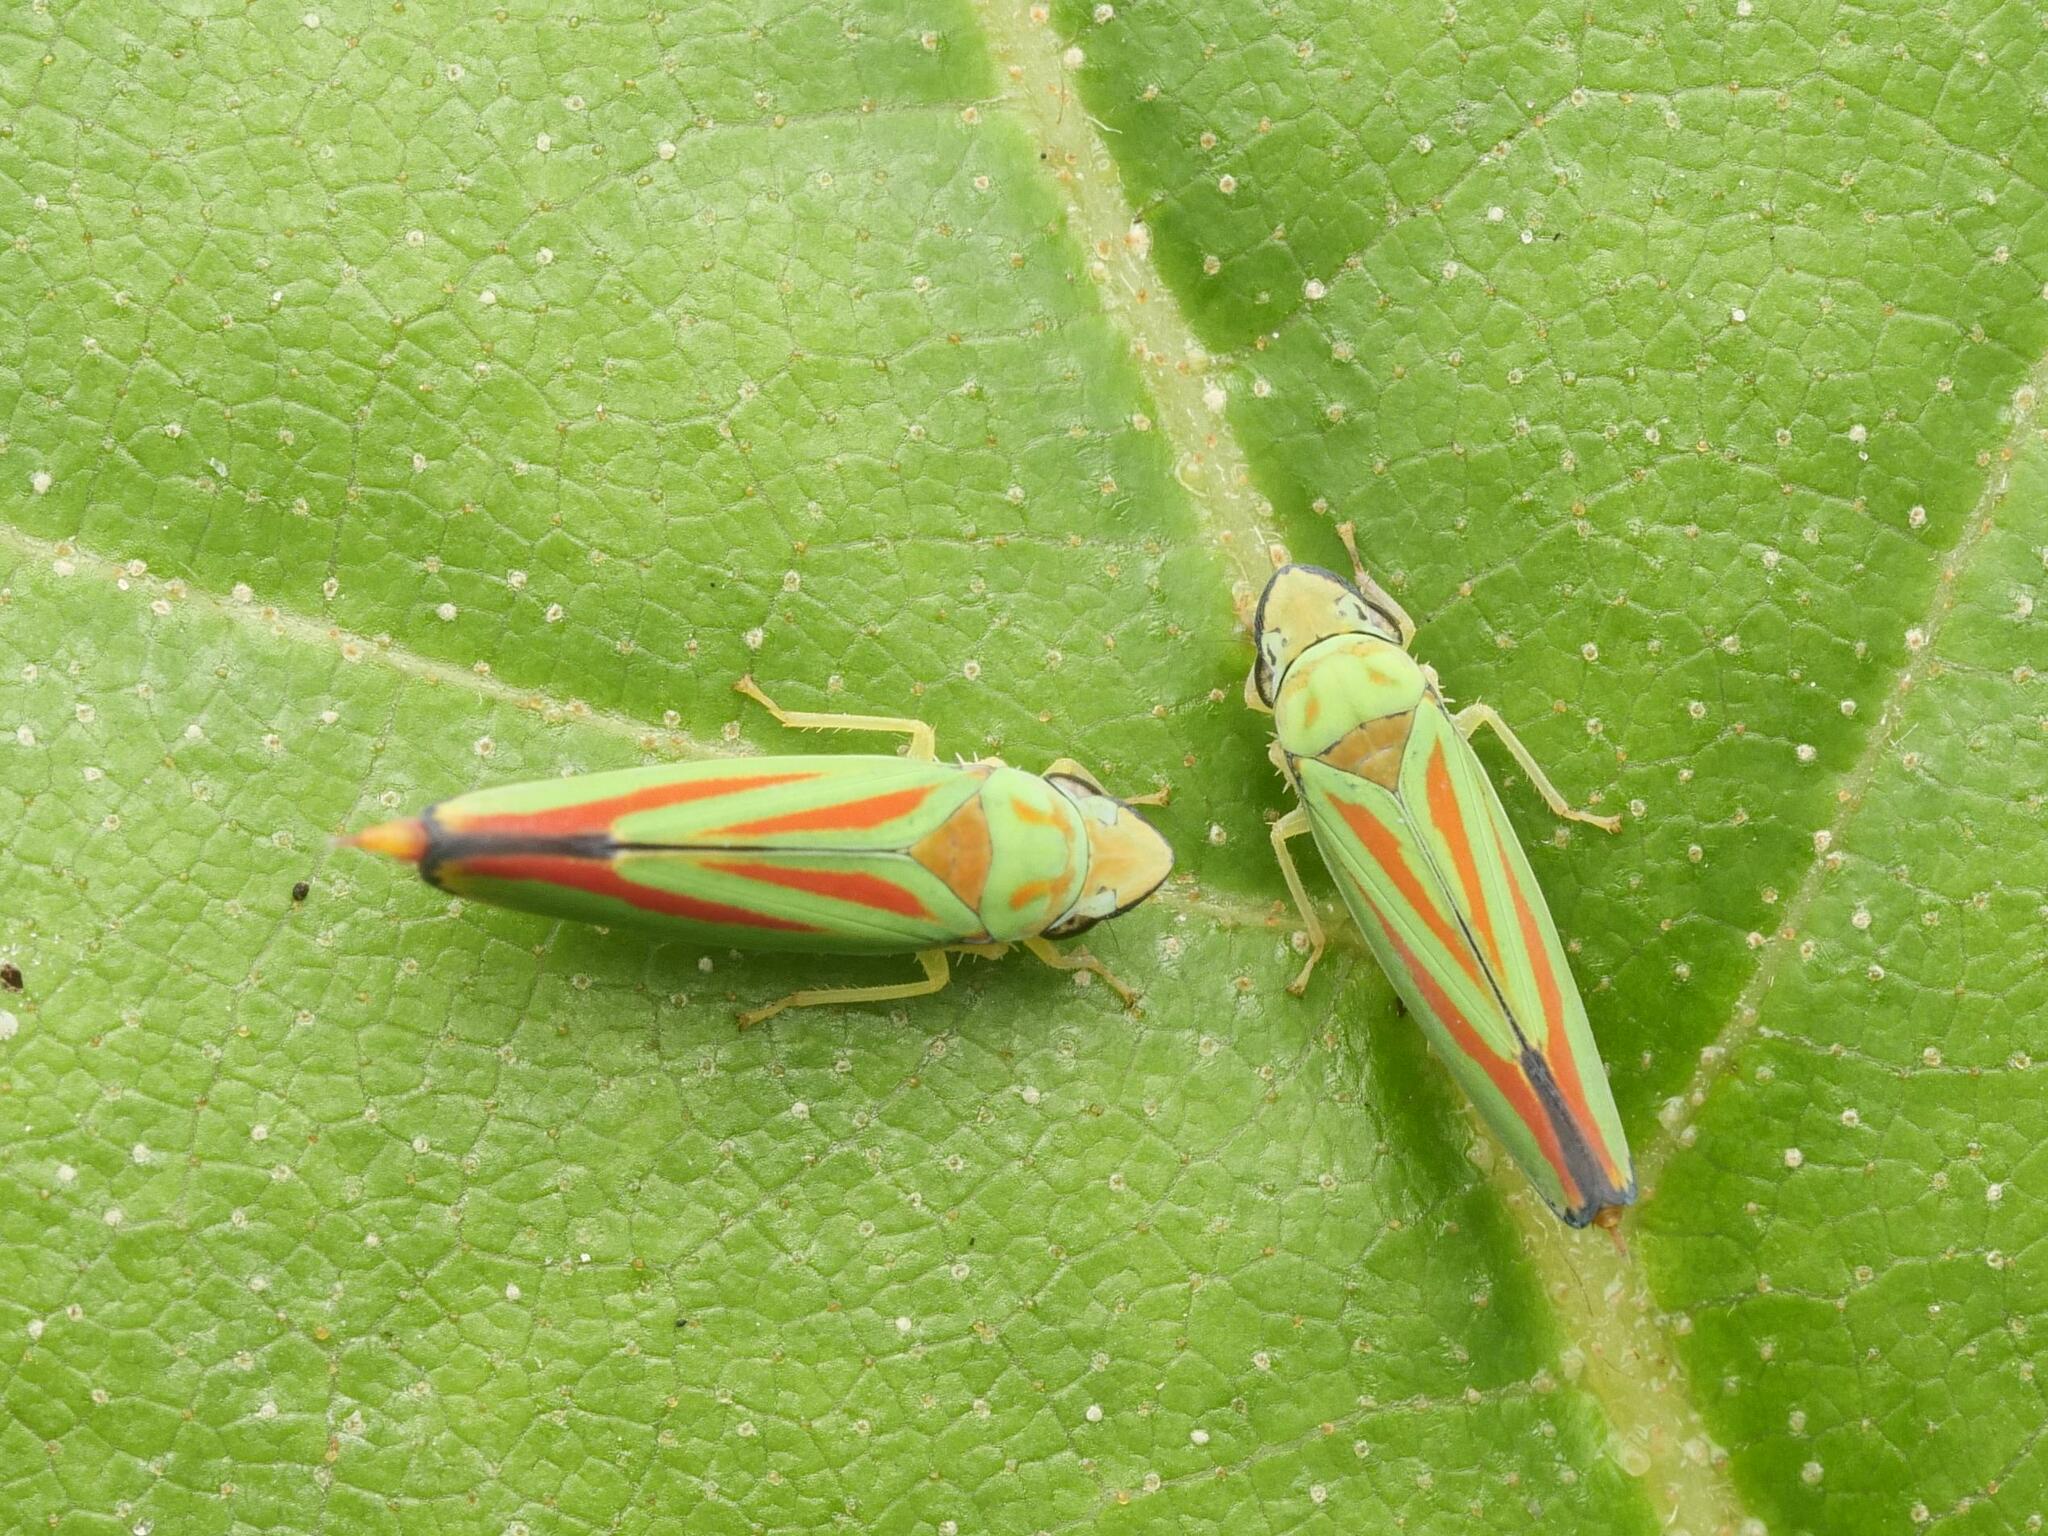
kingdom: Animalia
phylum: Arthropoda
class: Insecta
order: Hemiptera
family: Cicadellidae
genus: Graphocephala
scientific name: Graphocephala fennahi
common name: Rhododendron leafhopper
